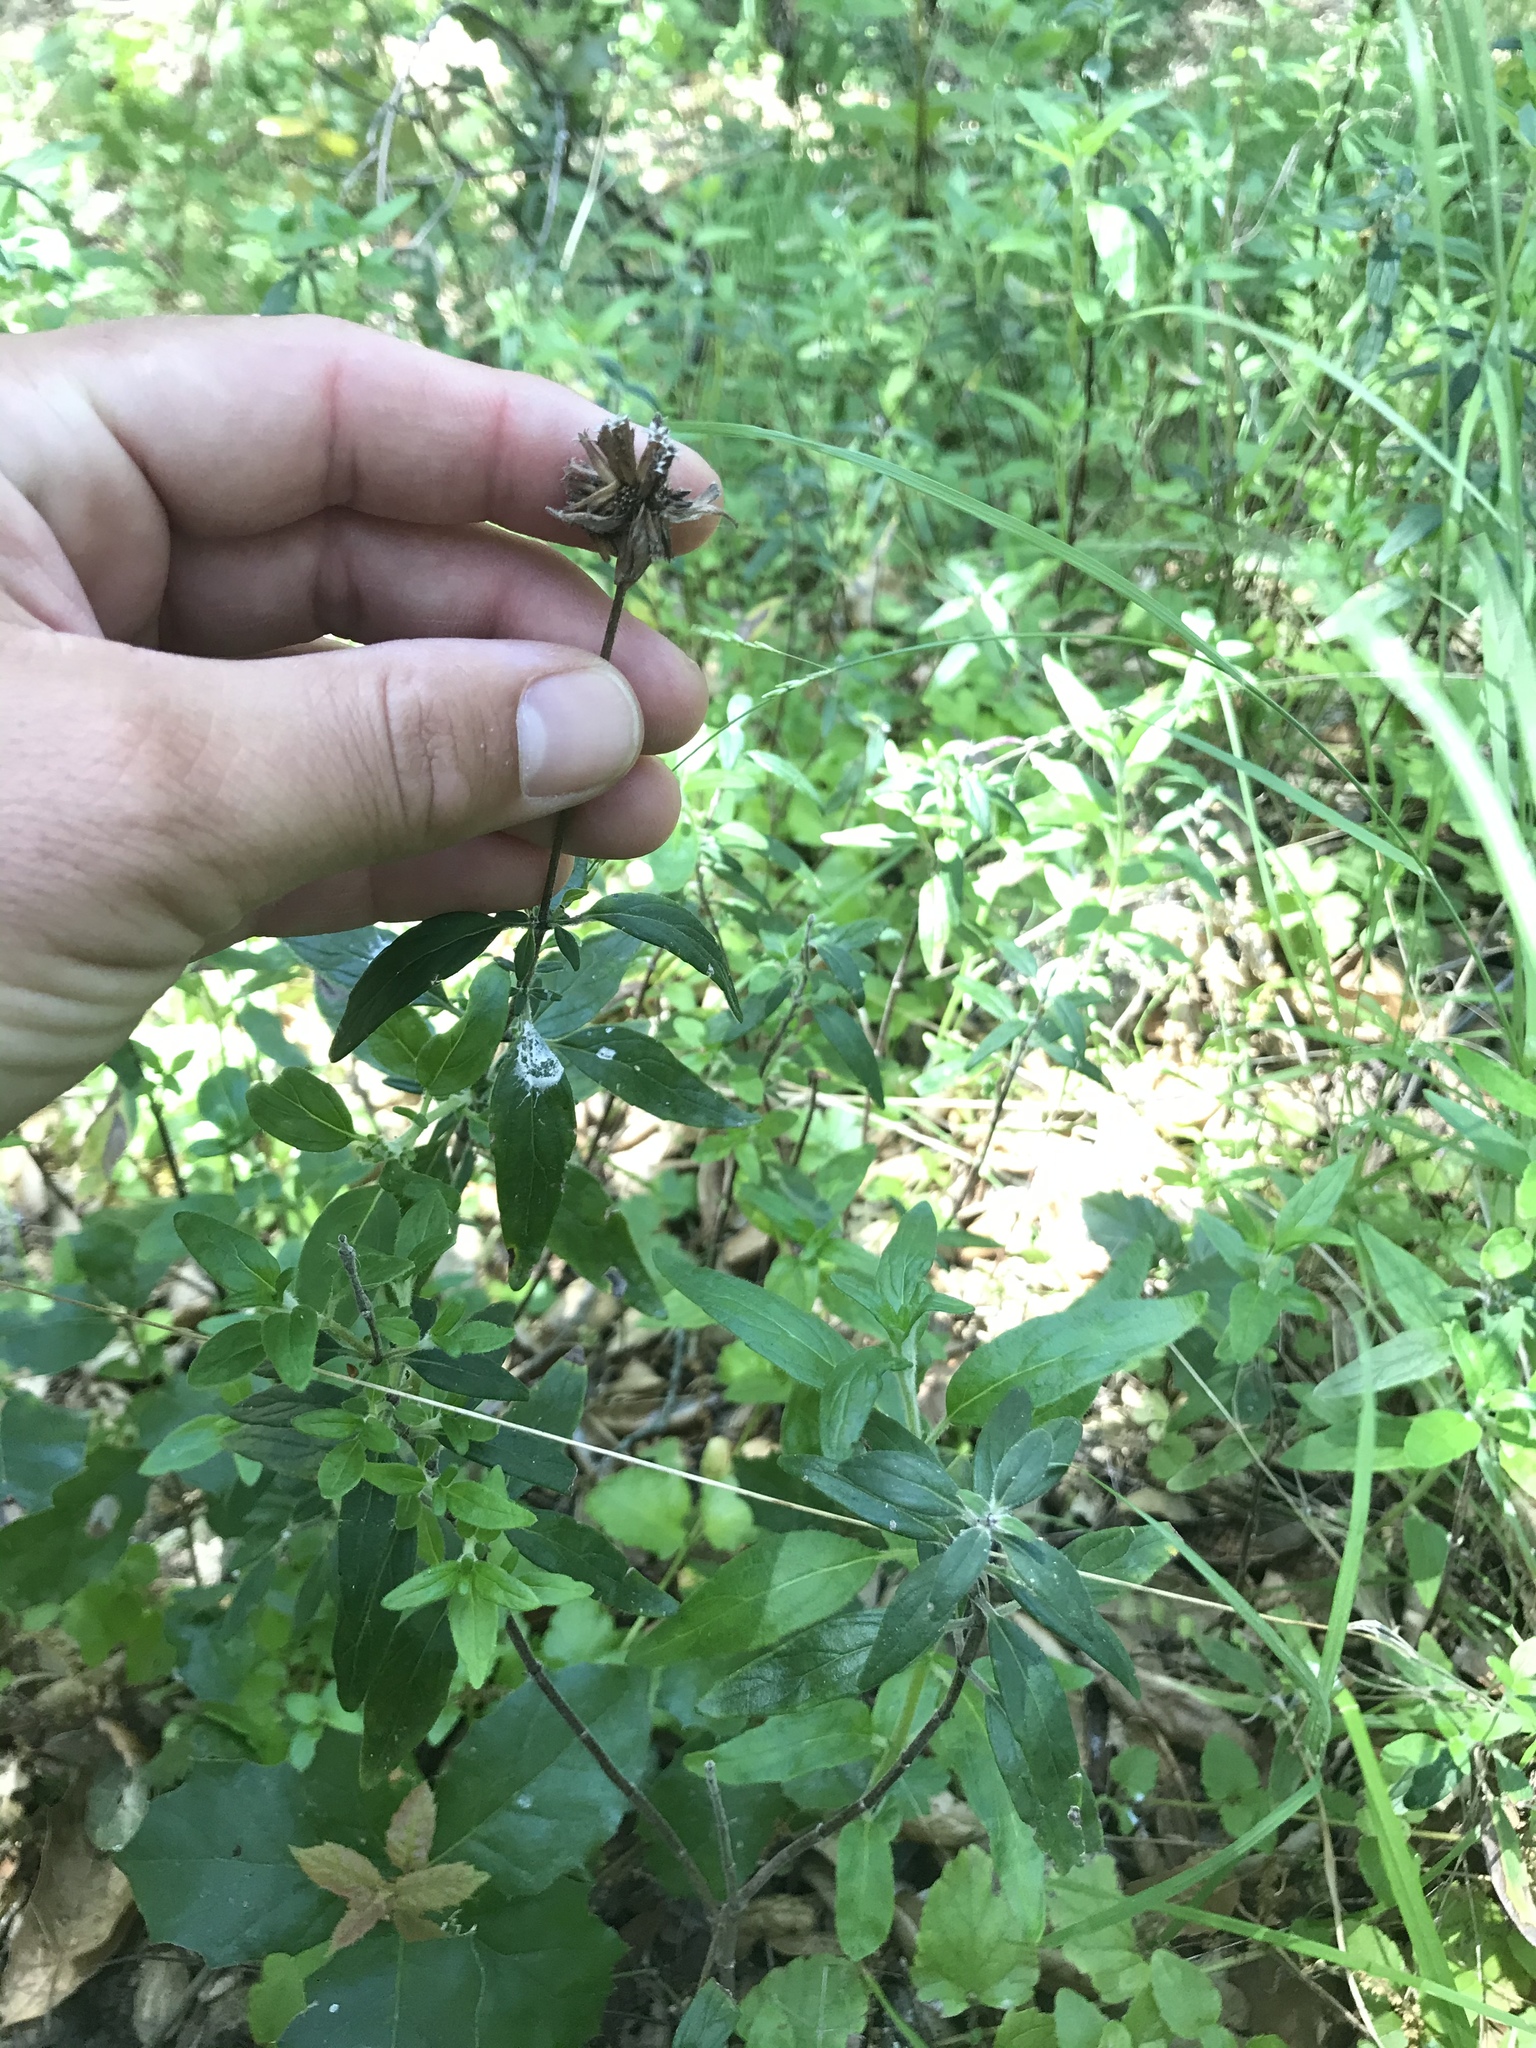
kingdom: Plantae
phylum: Tracheophyta
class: Magnoliopsida
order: Lamiales
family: Lamiaceae
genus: Monardella
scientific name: Monardella hypoleuca
